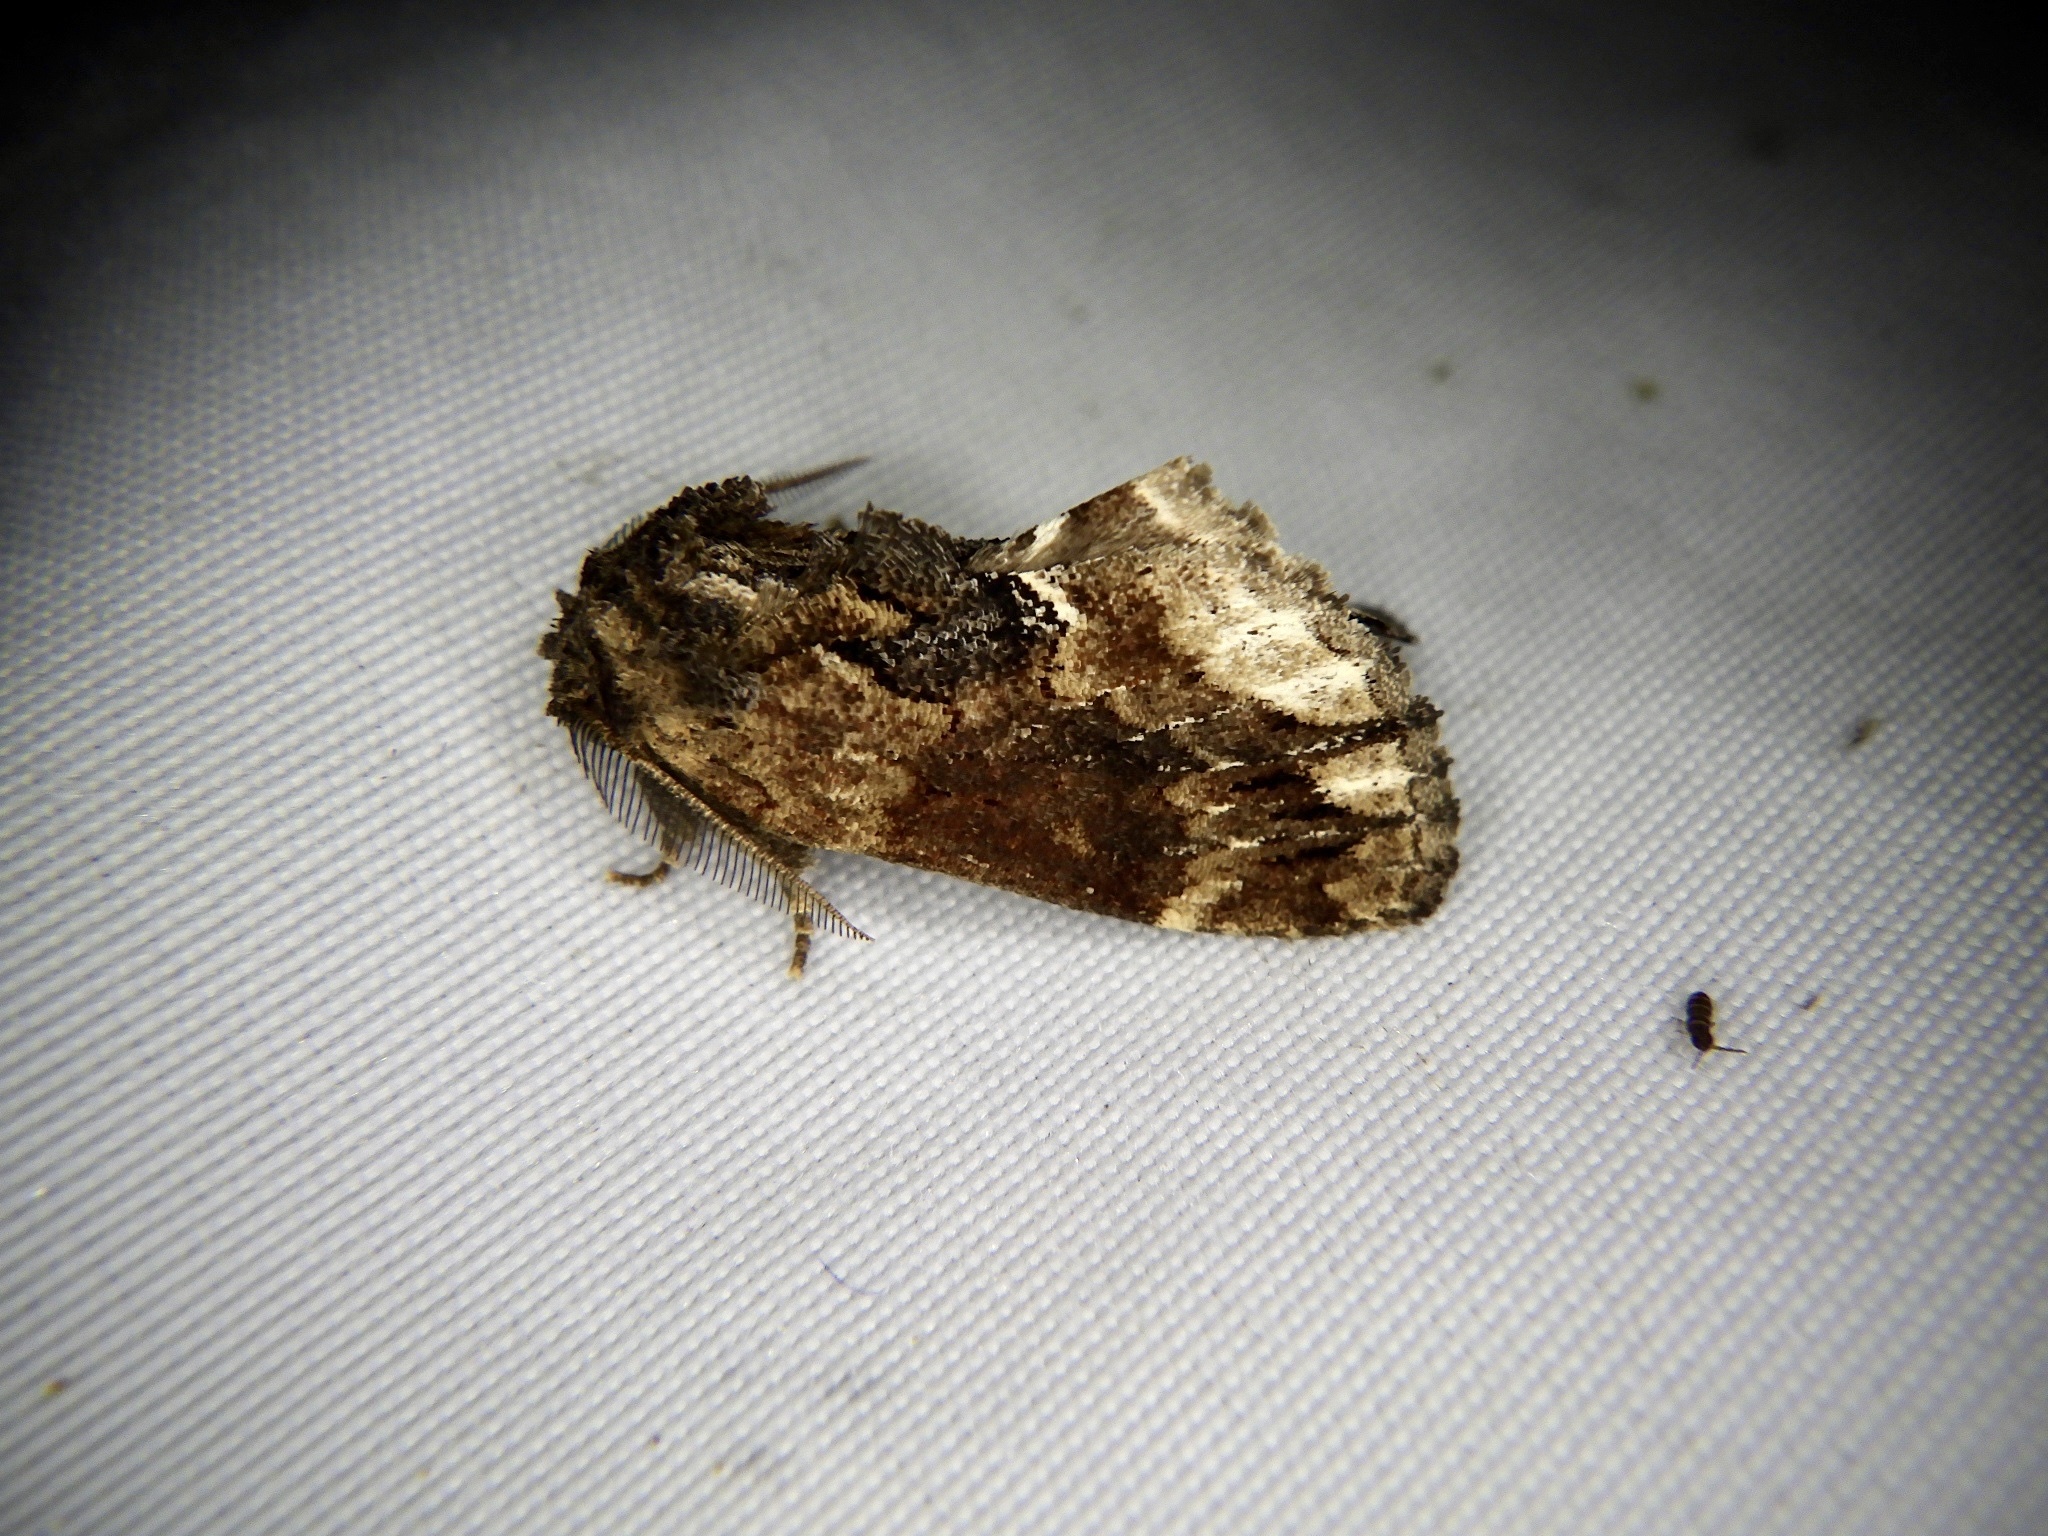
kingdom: Animalia
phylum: Arthropoda
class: Insecta
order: Lepidoptera
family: Notodontidae
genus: Lophontosia
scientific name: Lophontosia
